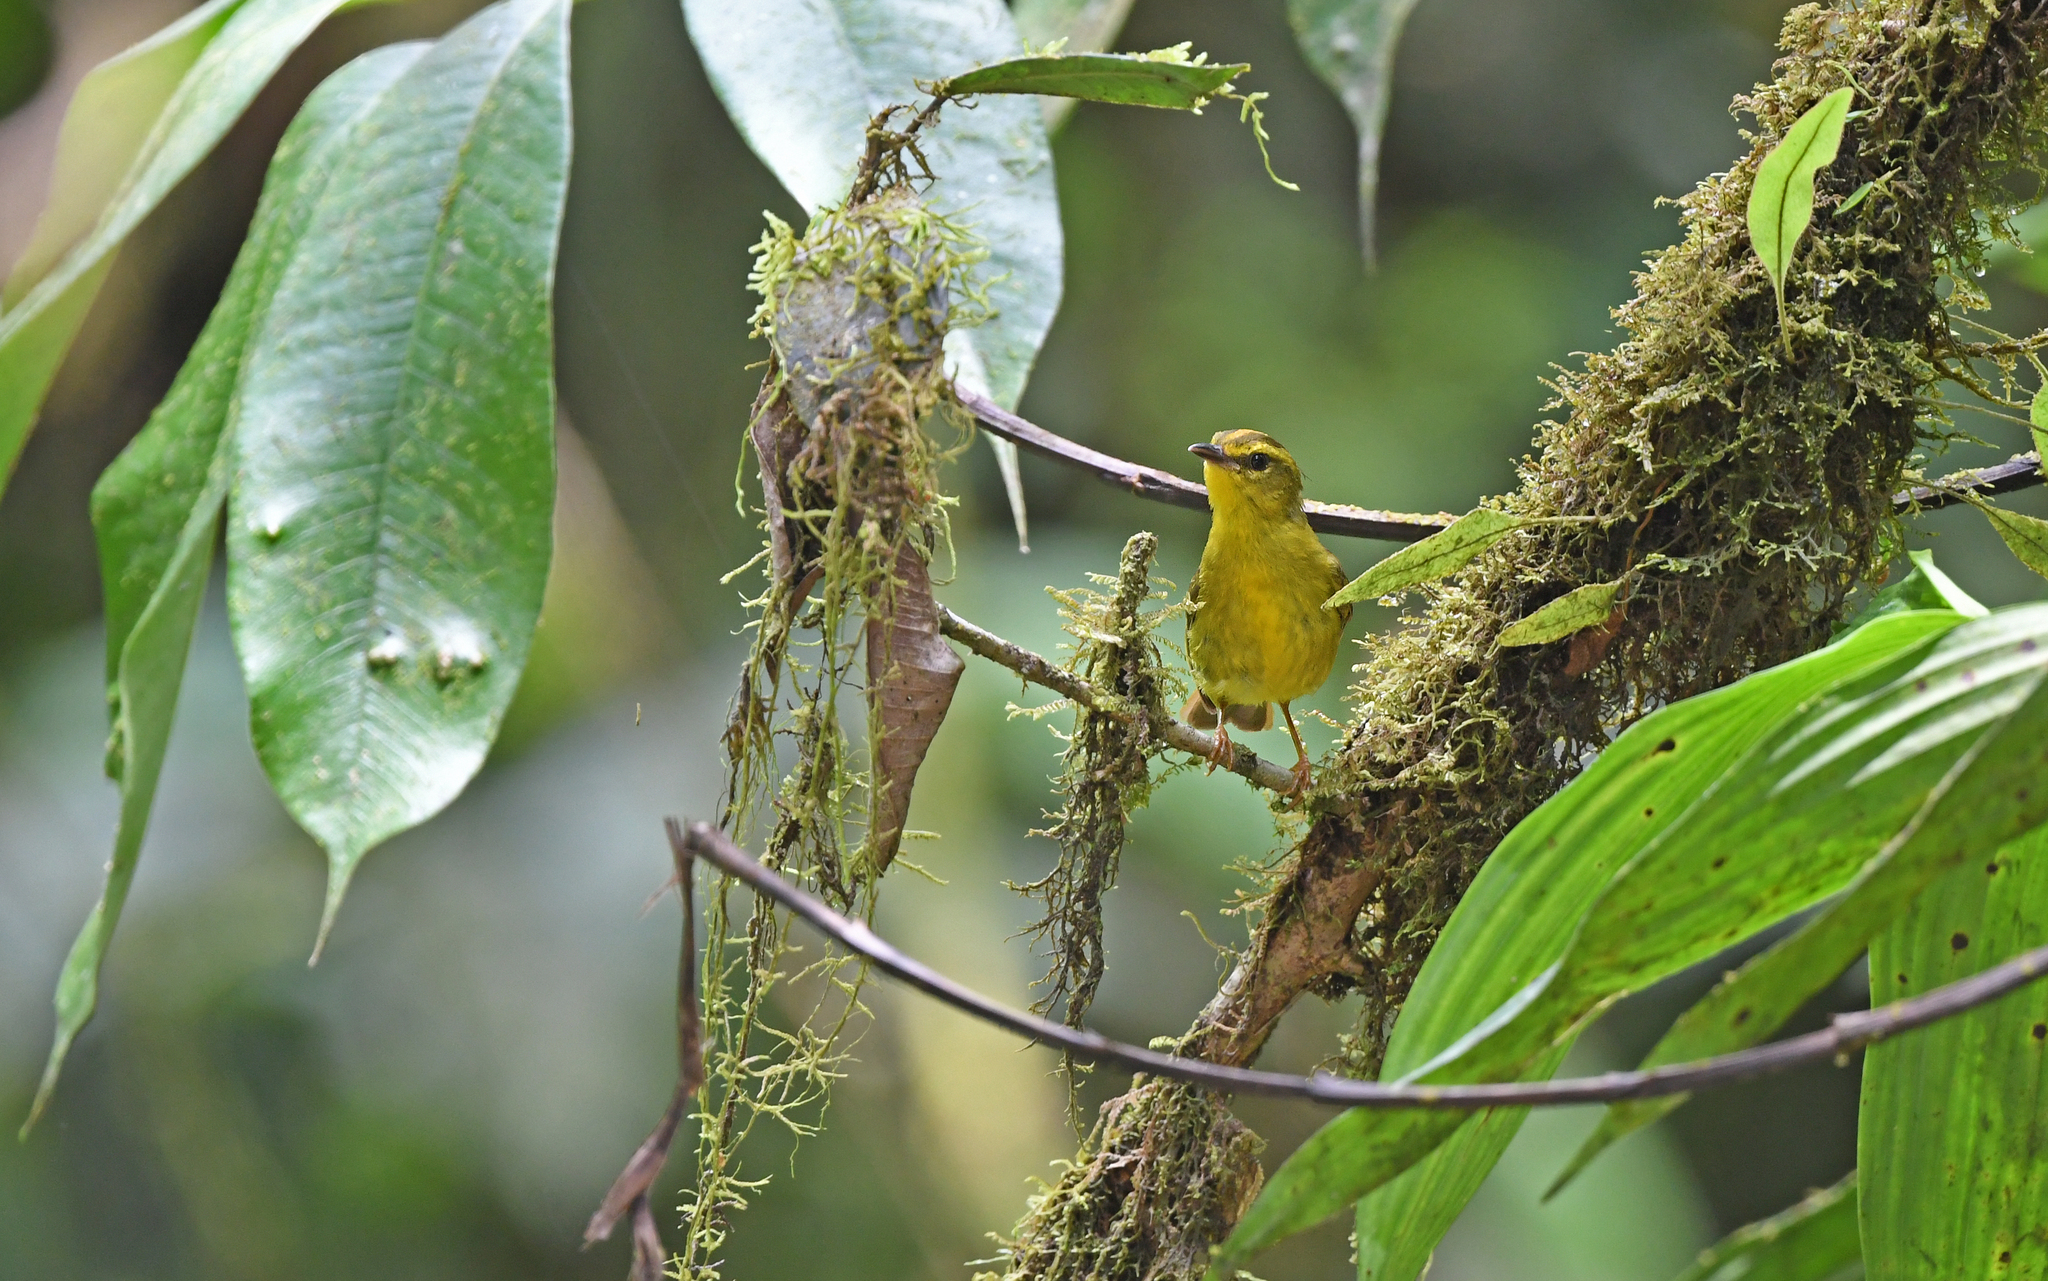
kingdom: Animalia
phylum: Chordata
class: Aves
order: Passeriformes
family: Parulidae
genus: Myiothlypis
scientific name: Myiothlypis chrysogaster
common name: Cuzco warbler
